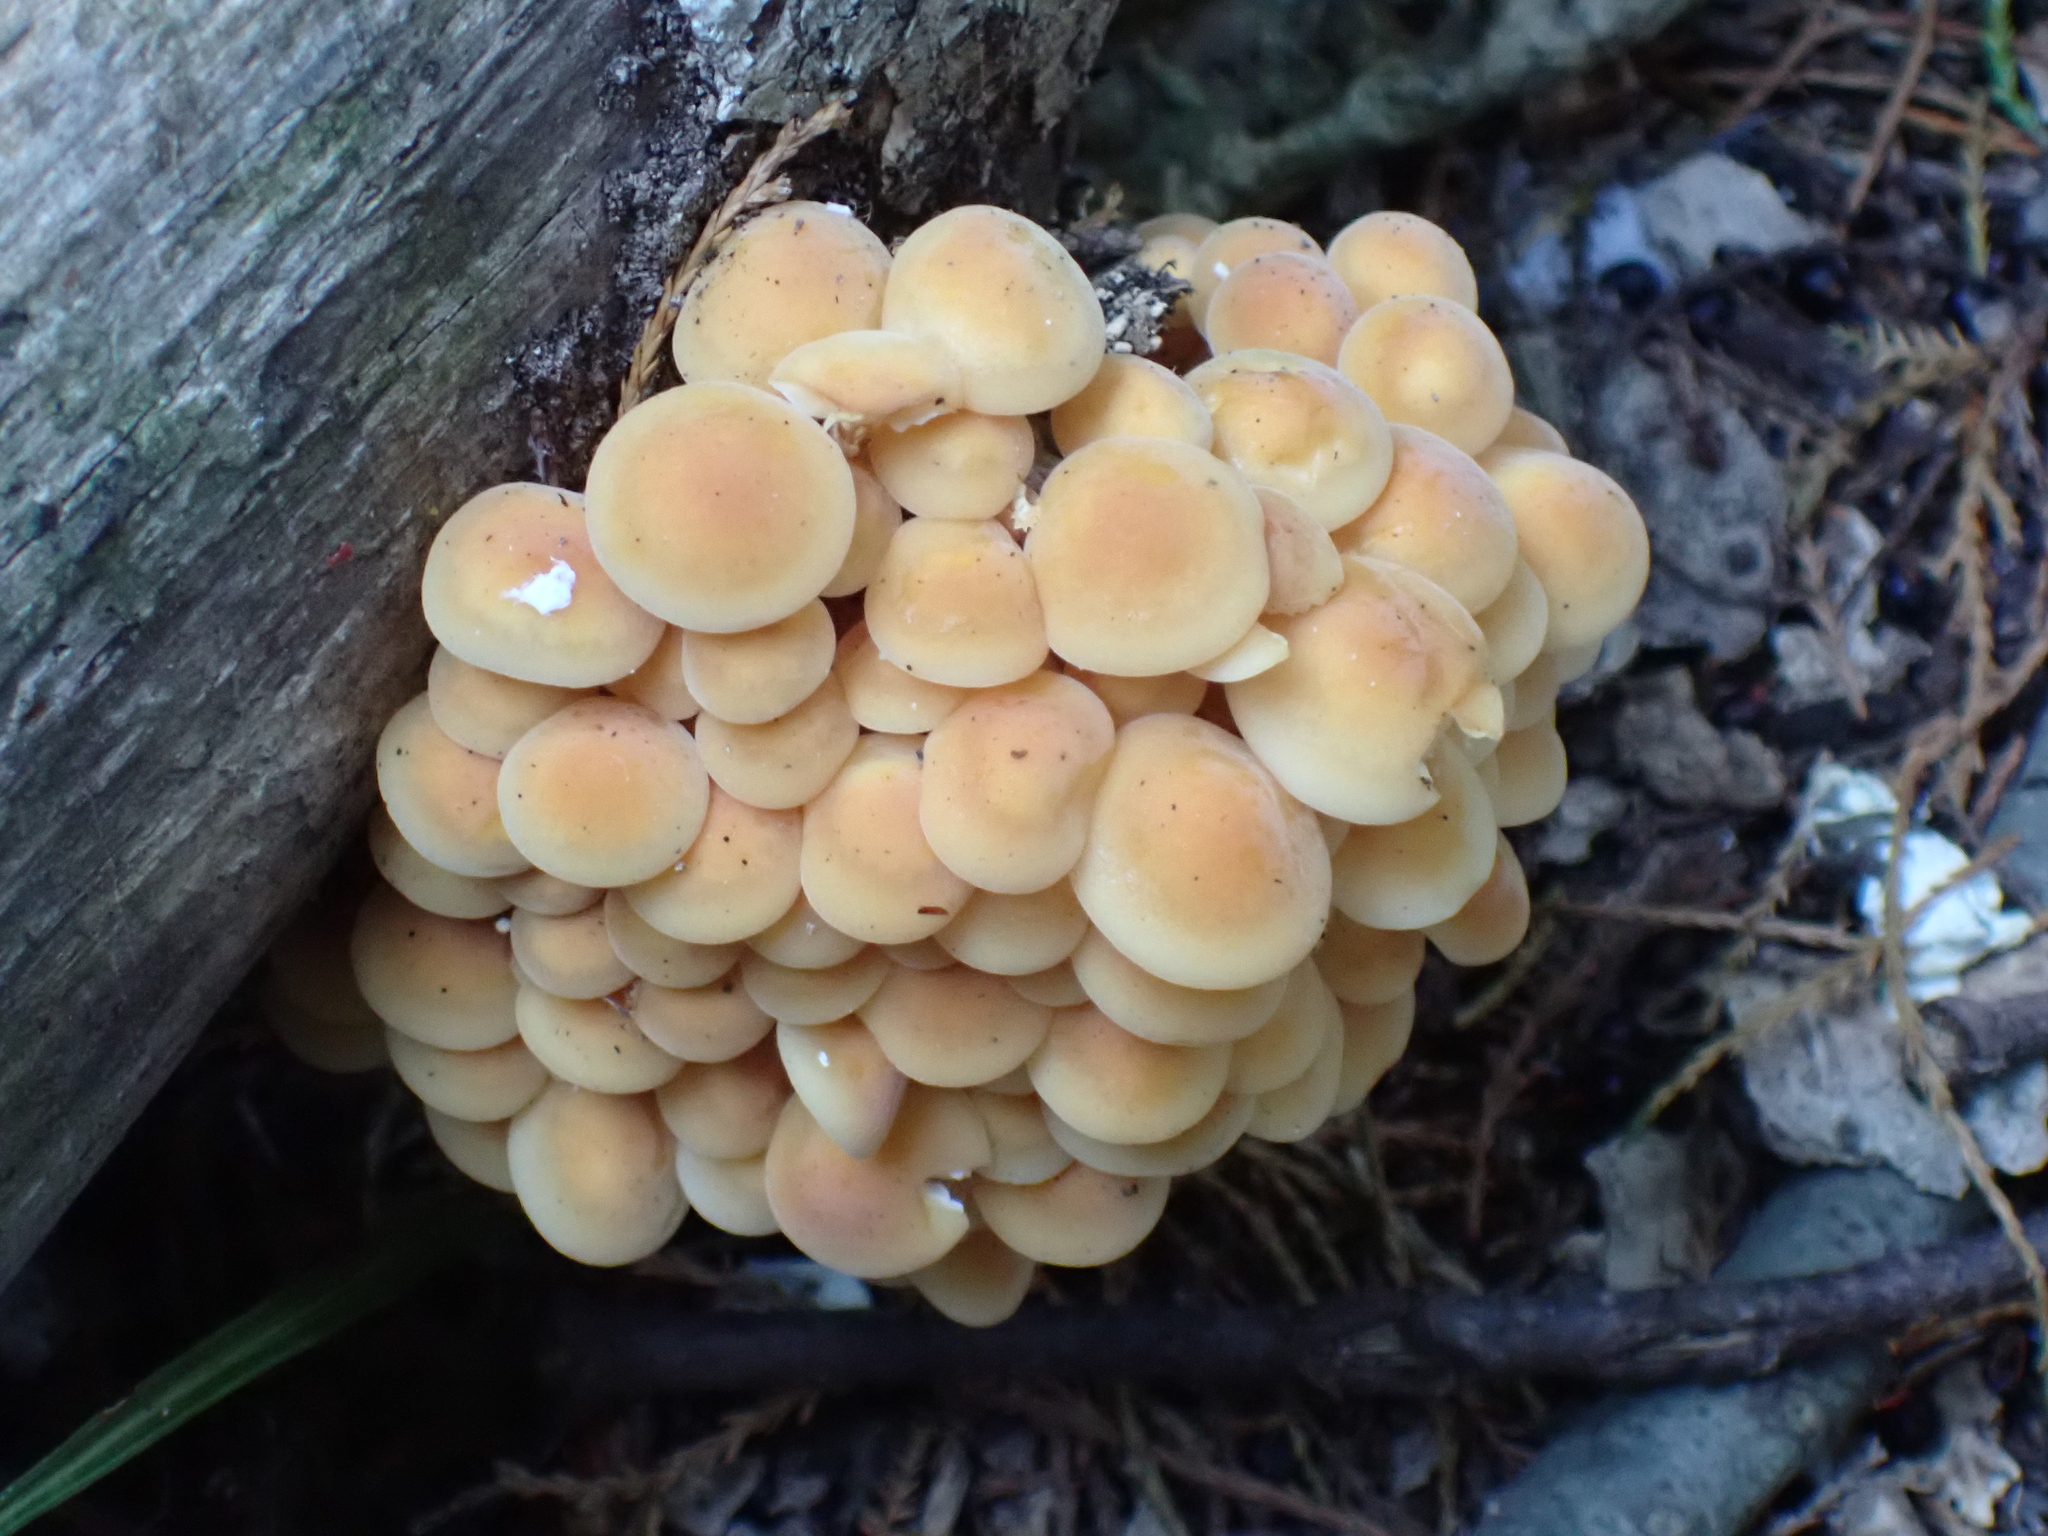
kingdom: Fungi
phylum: Basidiomycota
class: Agaricomycetes
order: Agaricales
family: Physalacriaceae
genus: Flammulina
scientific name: Flammulina velutipes
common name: Velvet shank
